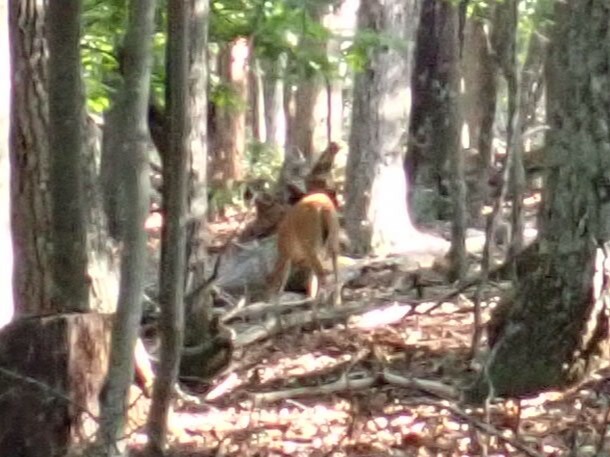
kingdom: Animalia
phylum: Chordata
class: Mammalia
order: Artiodactyla
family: Cervidae
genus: Odocoileus
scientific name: Odocoileus virginianus
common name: White-tailed deer
